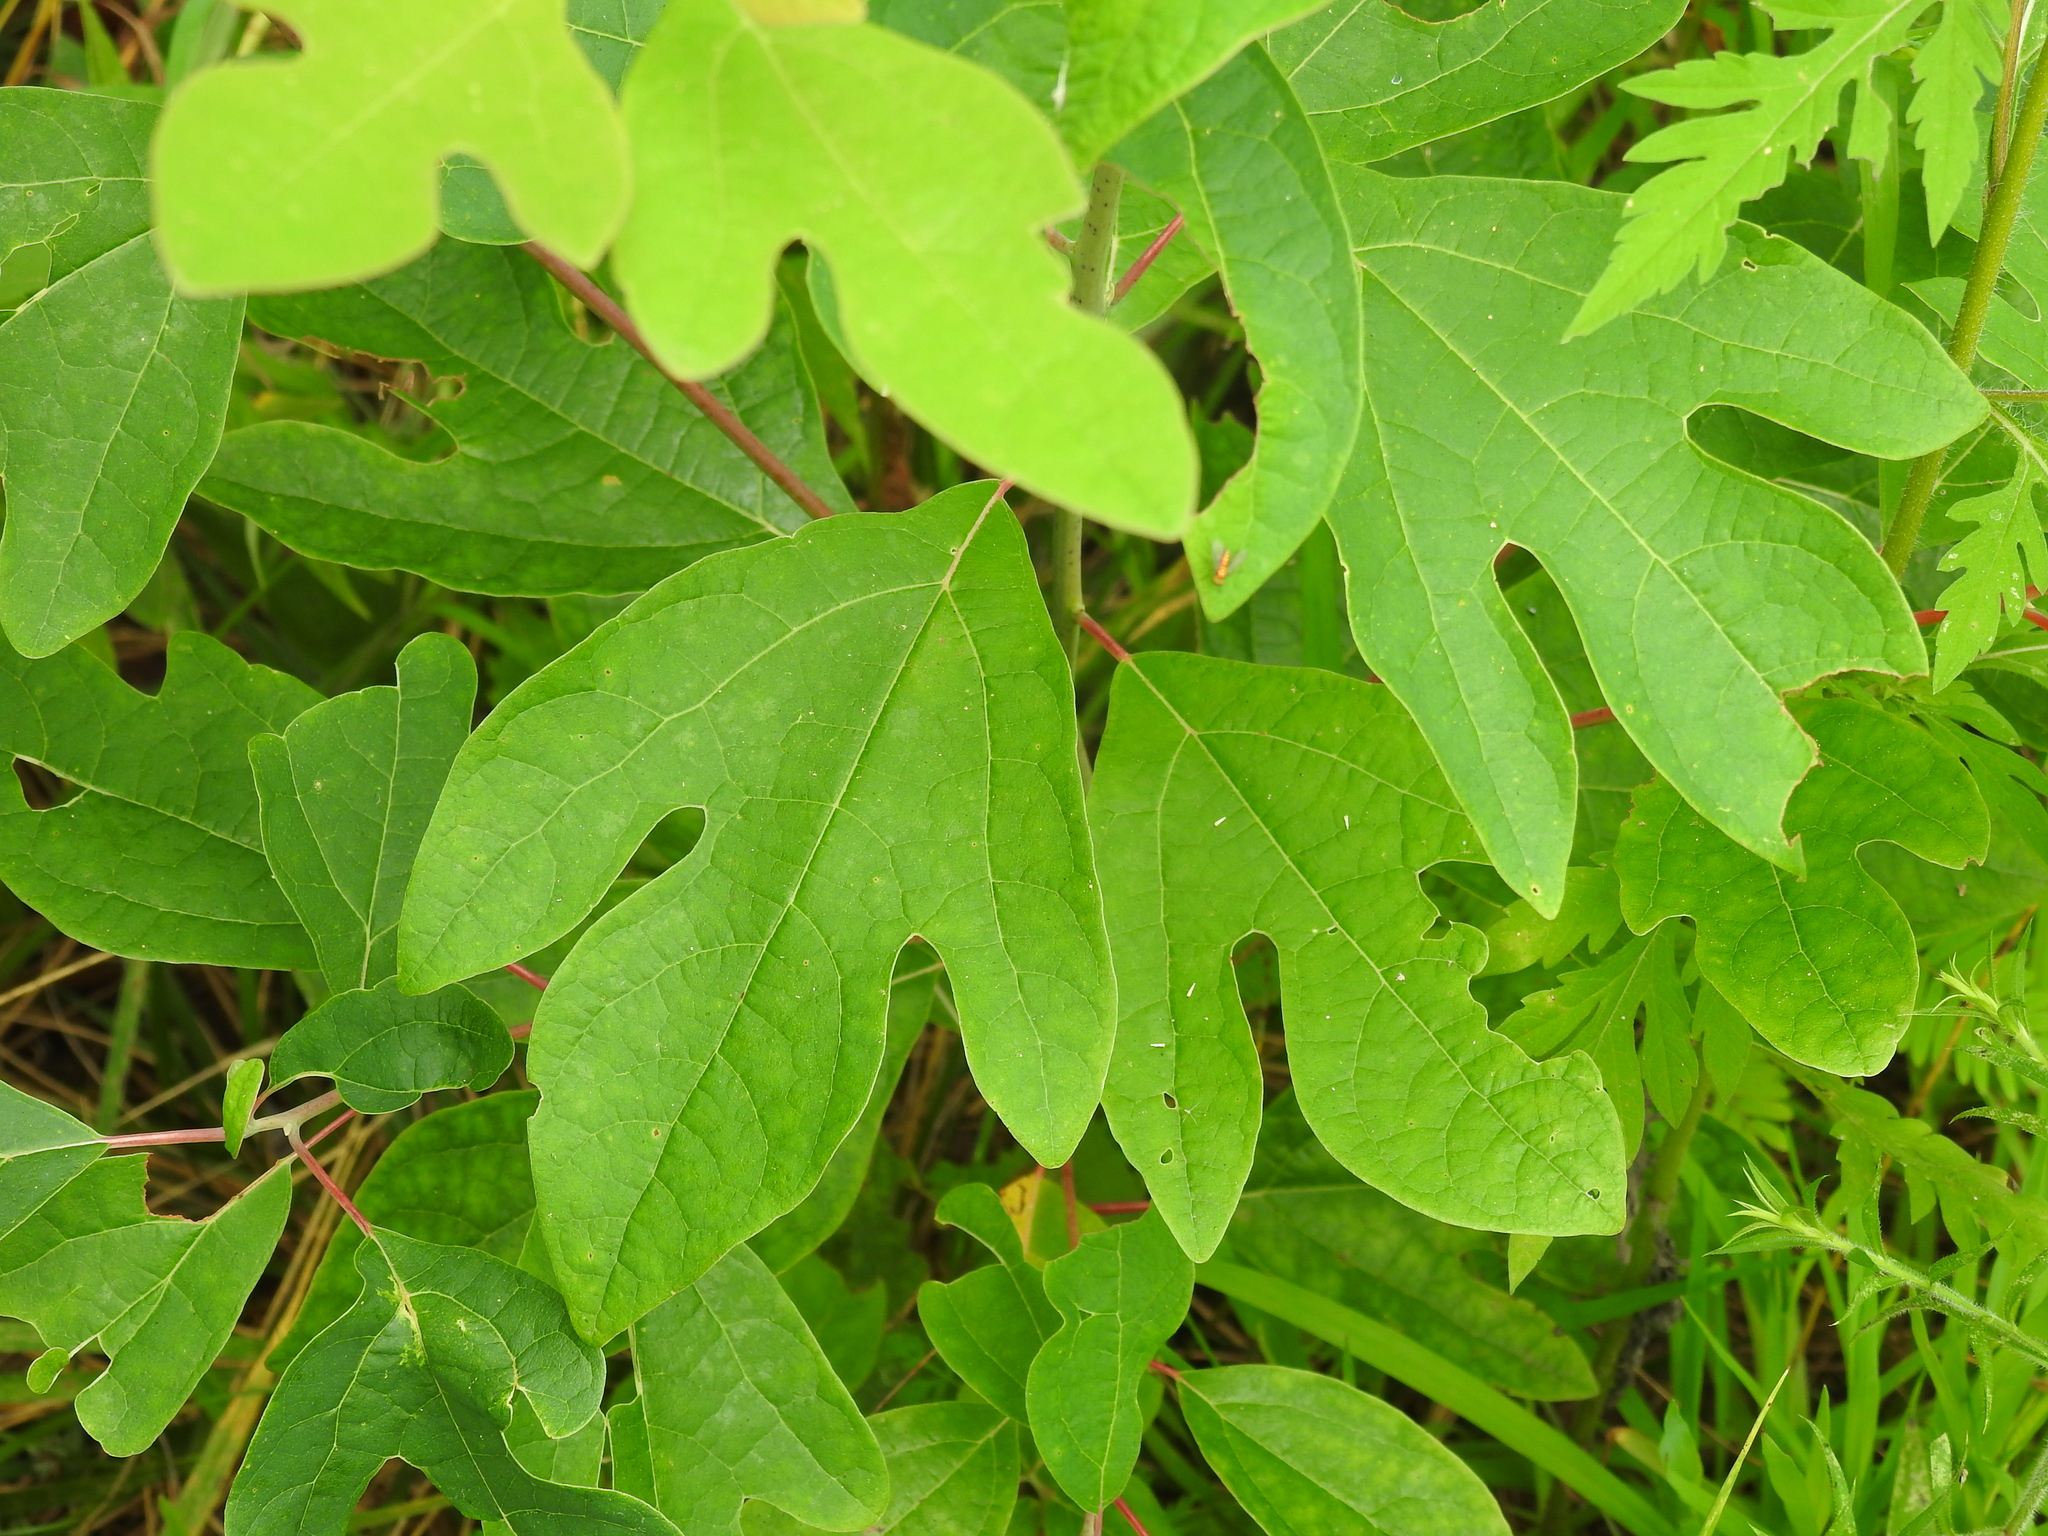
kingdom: Plantae
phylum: Tracheophyta
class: Magnoliopsida
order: Laurales
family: Lauraceae
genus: Sassafras
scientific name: Sassafras albidum
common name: Sassafras
